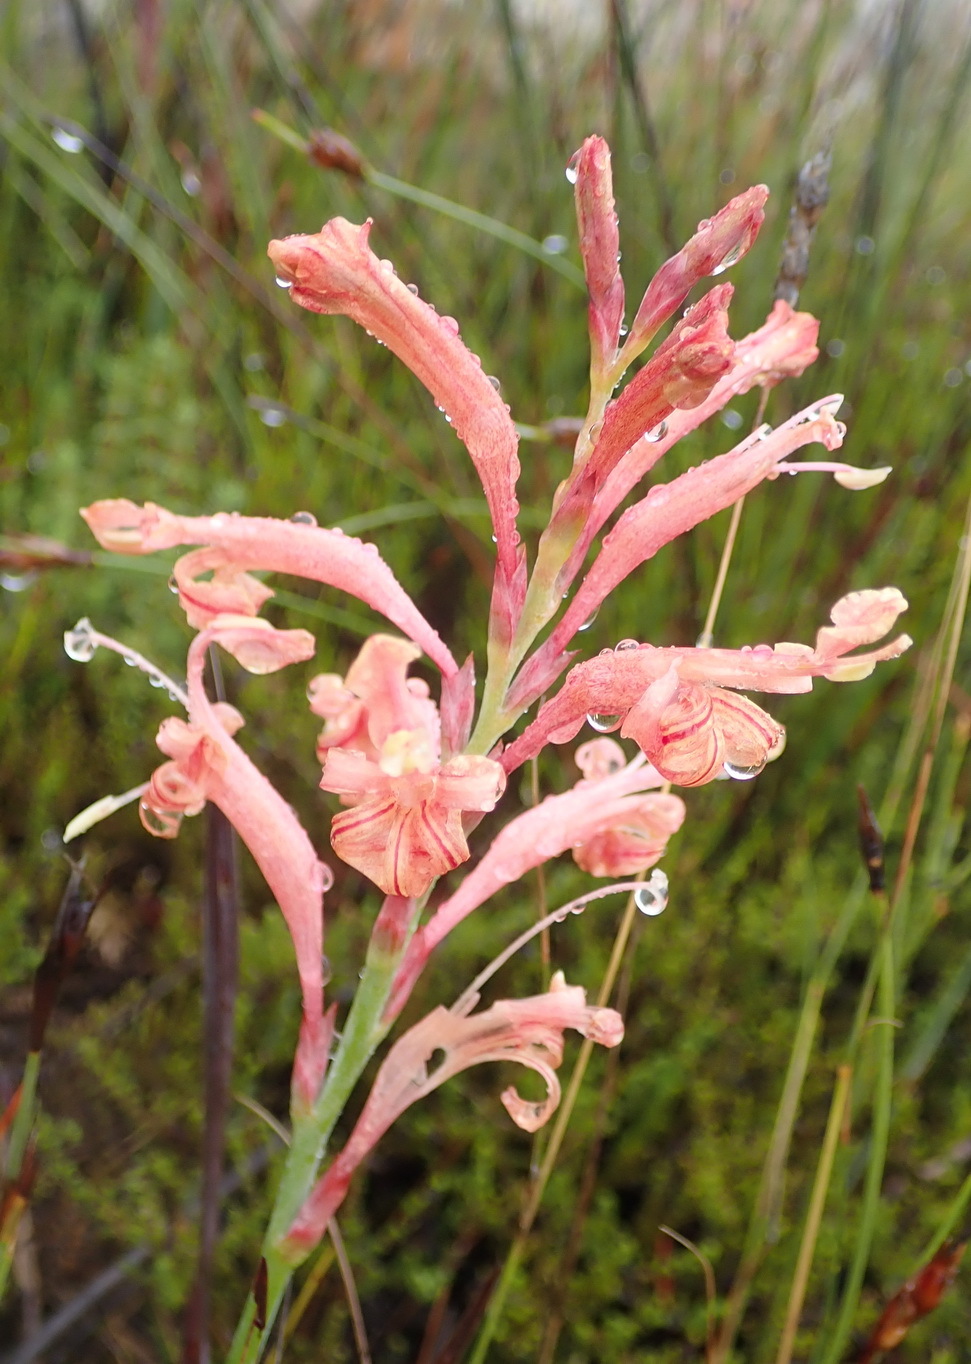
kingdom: Plantae
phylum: Tracheophyta
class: Liliopsida
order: Asparagales
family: Iridaceae
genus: Tritoniopsis
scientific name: Tritoniopsis antholyza
